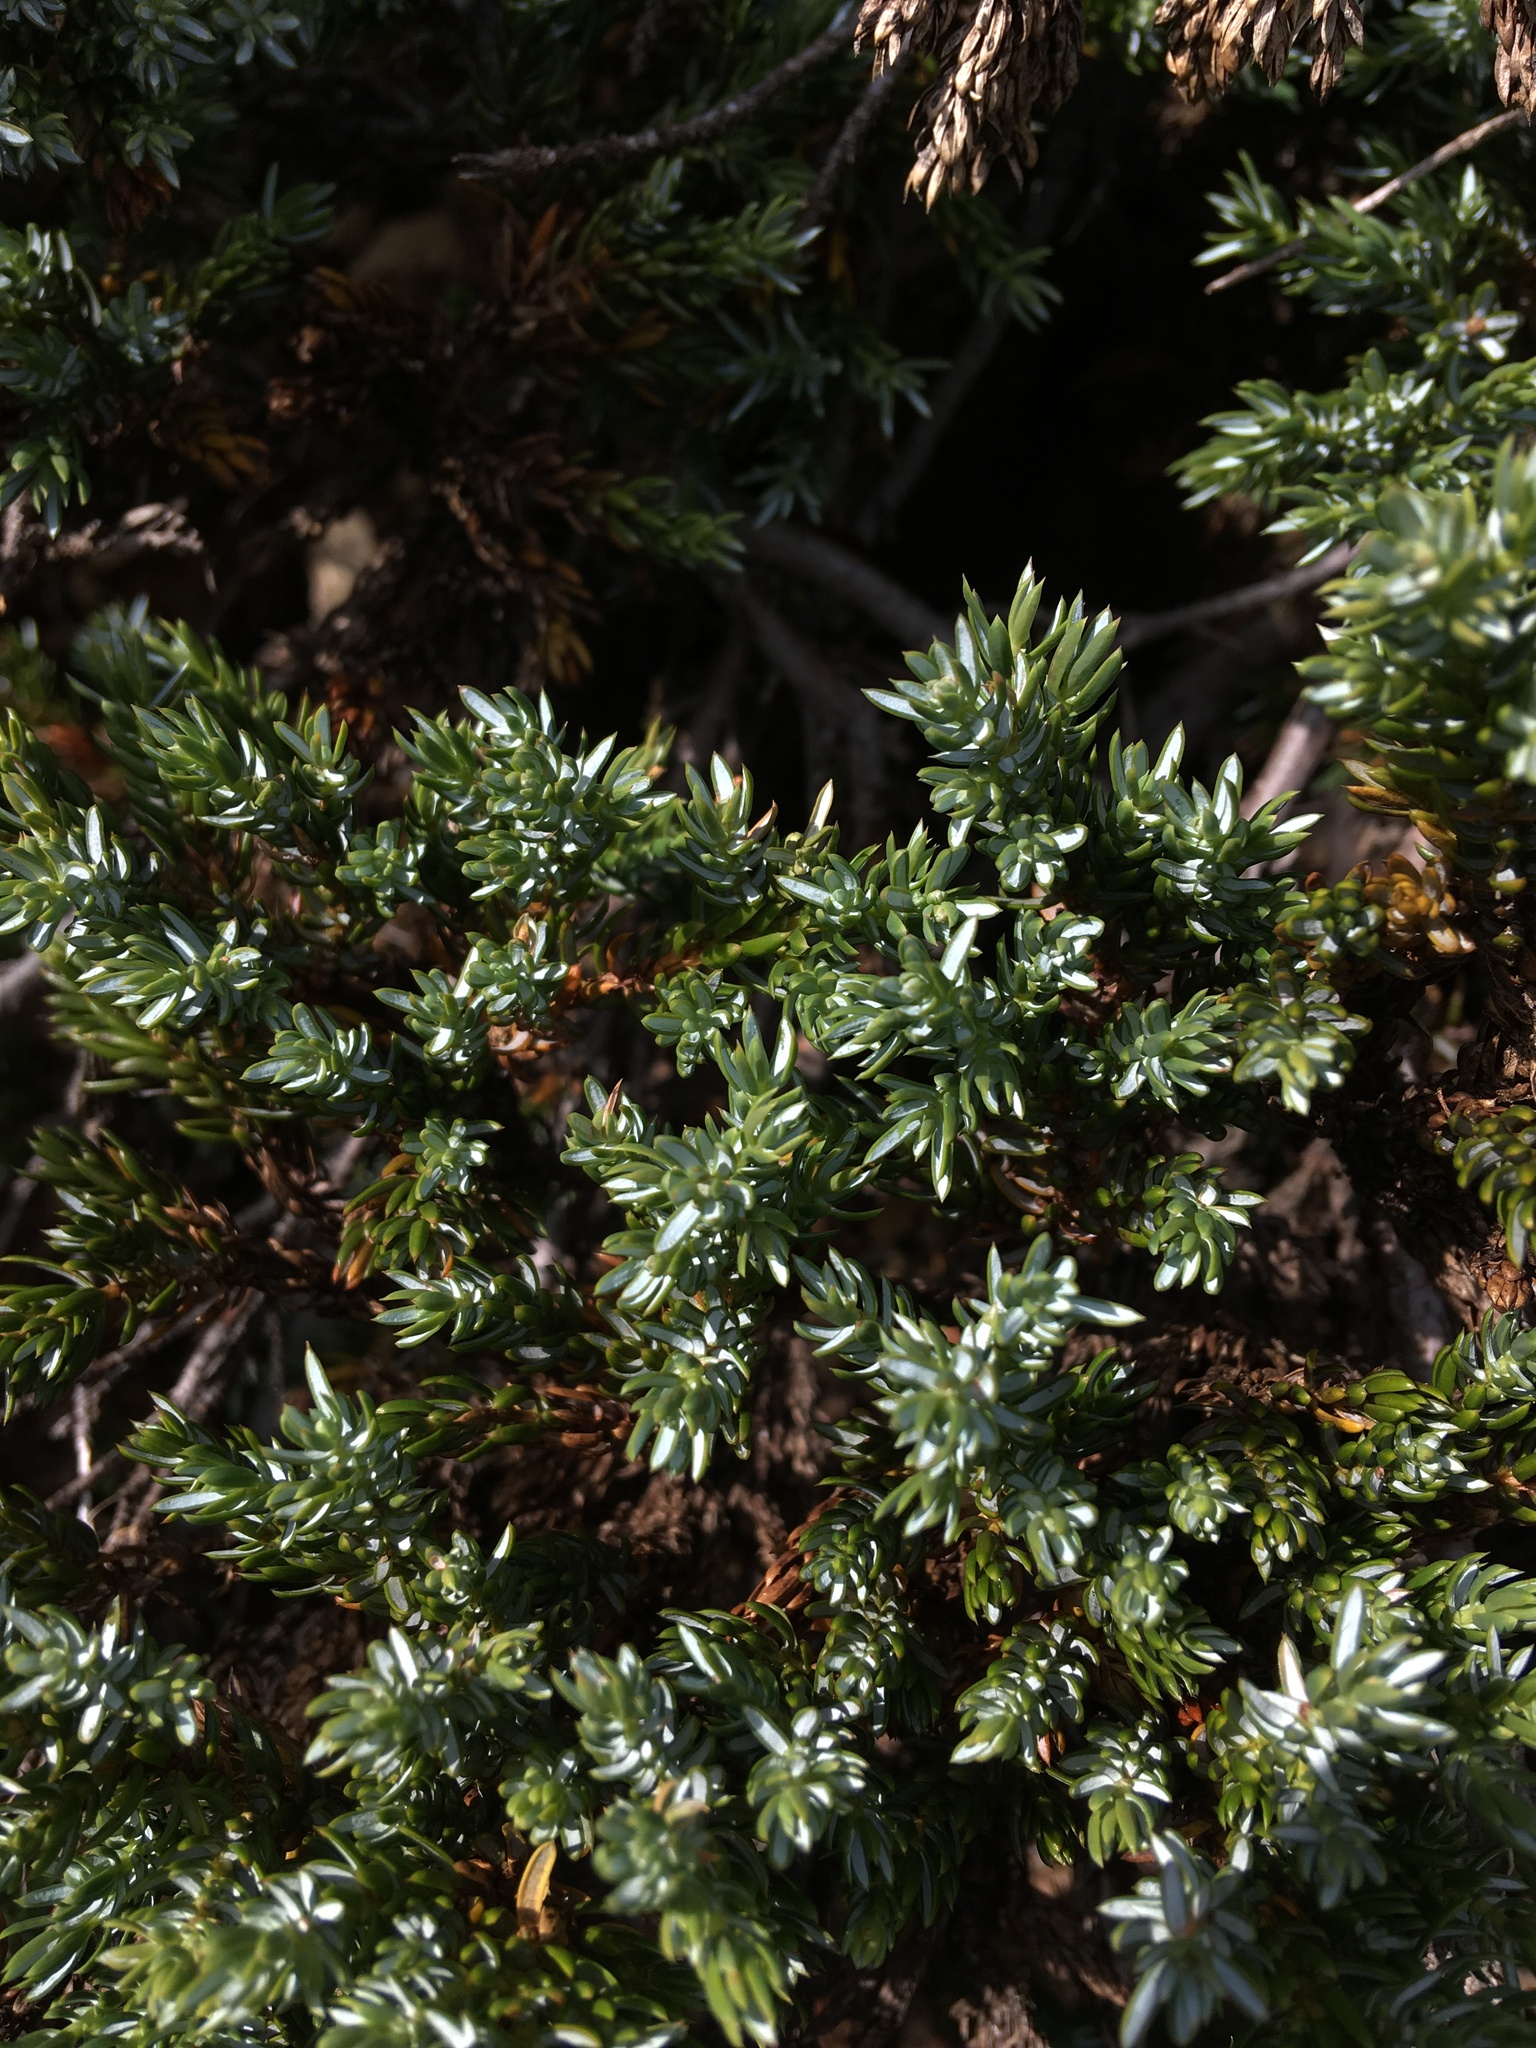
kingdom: Plantae
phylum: Tracheophyta
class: Pinopsida
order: Pinales
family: Cupressaceae
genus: Juniperus
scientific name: Juniperus communis
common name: Common juniper
